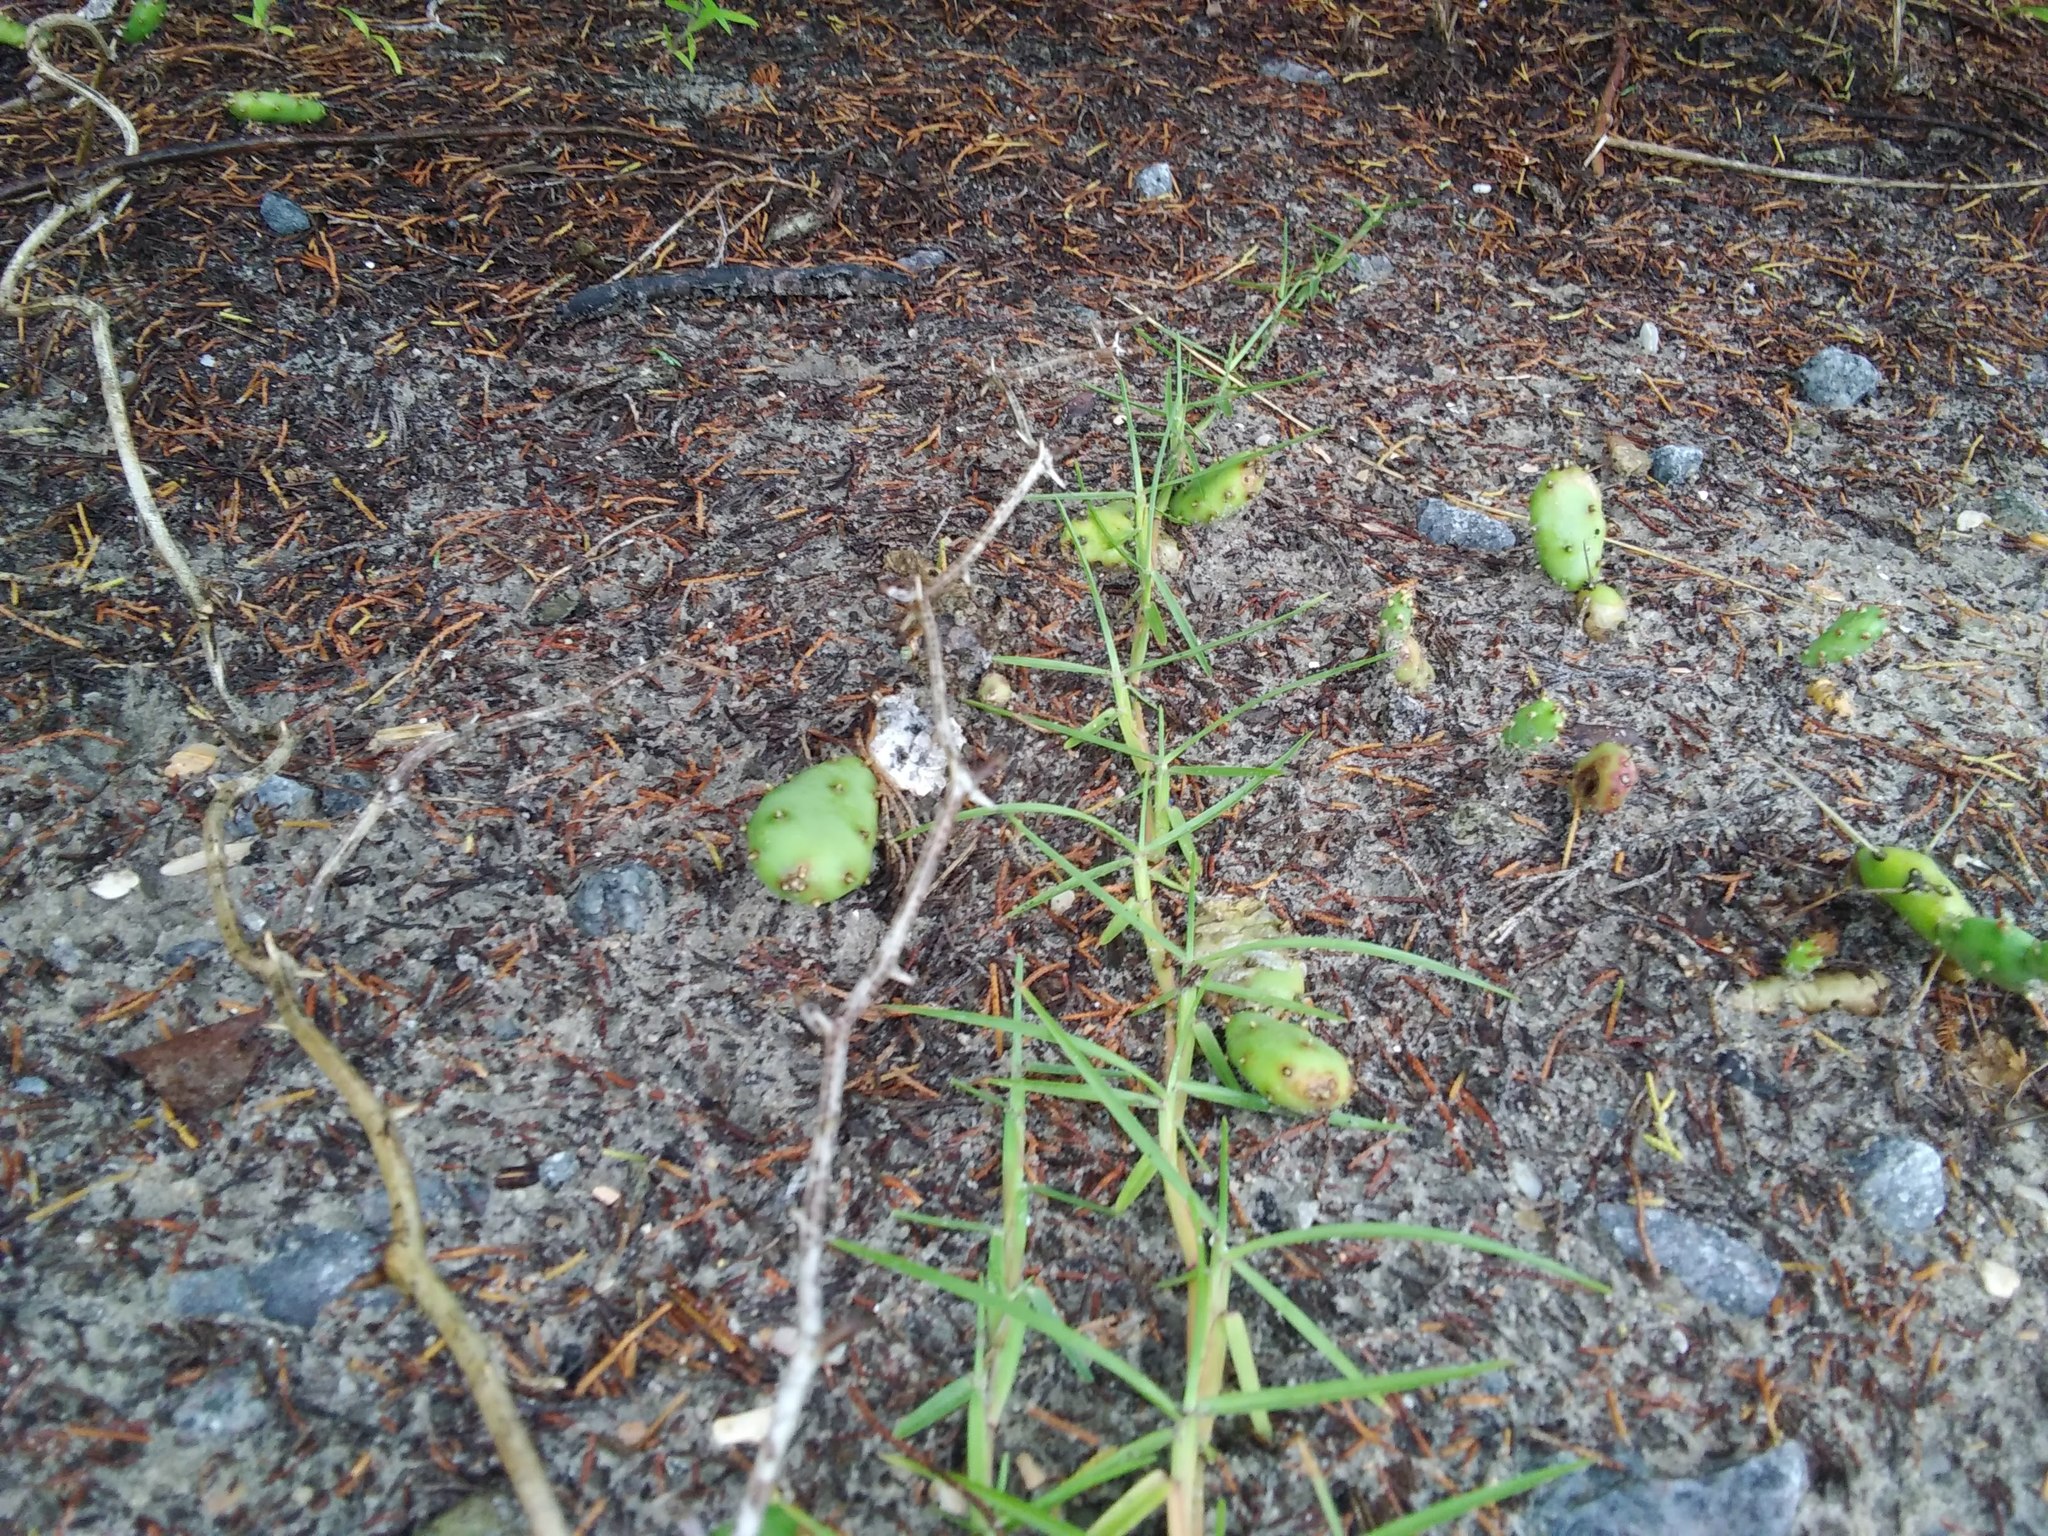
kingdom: Plantae
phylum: Tracheophyta
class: Magnoliopsida
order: Caryophyllales
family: Cactaceae
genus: Opuntia
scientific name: Opuntia drummondii
